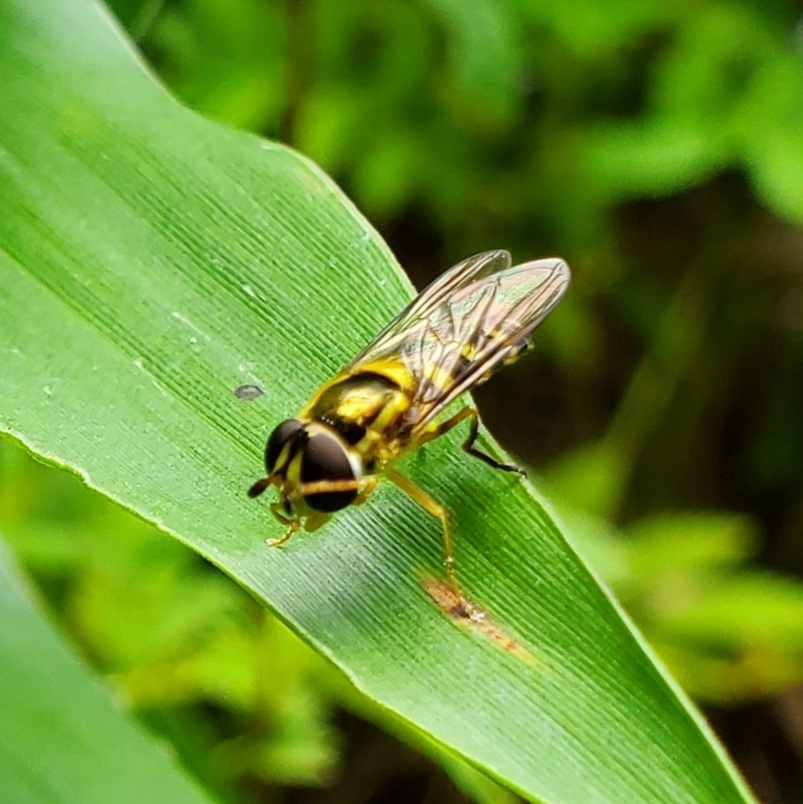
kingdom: Animalia
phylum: Arthropoda
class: Insecta
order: Diptera
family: Syrphidae
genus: Epistrophella
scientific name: Epistrophella emarginata
